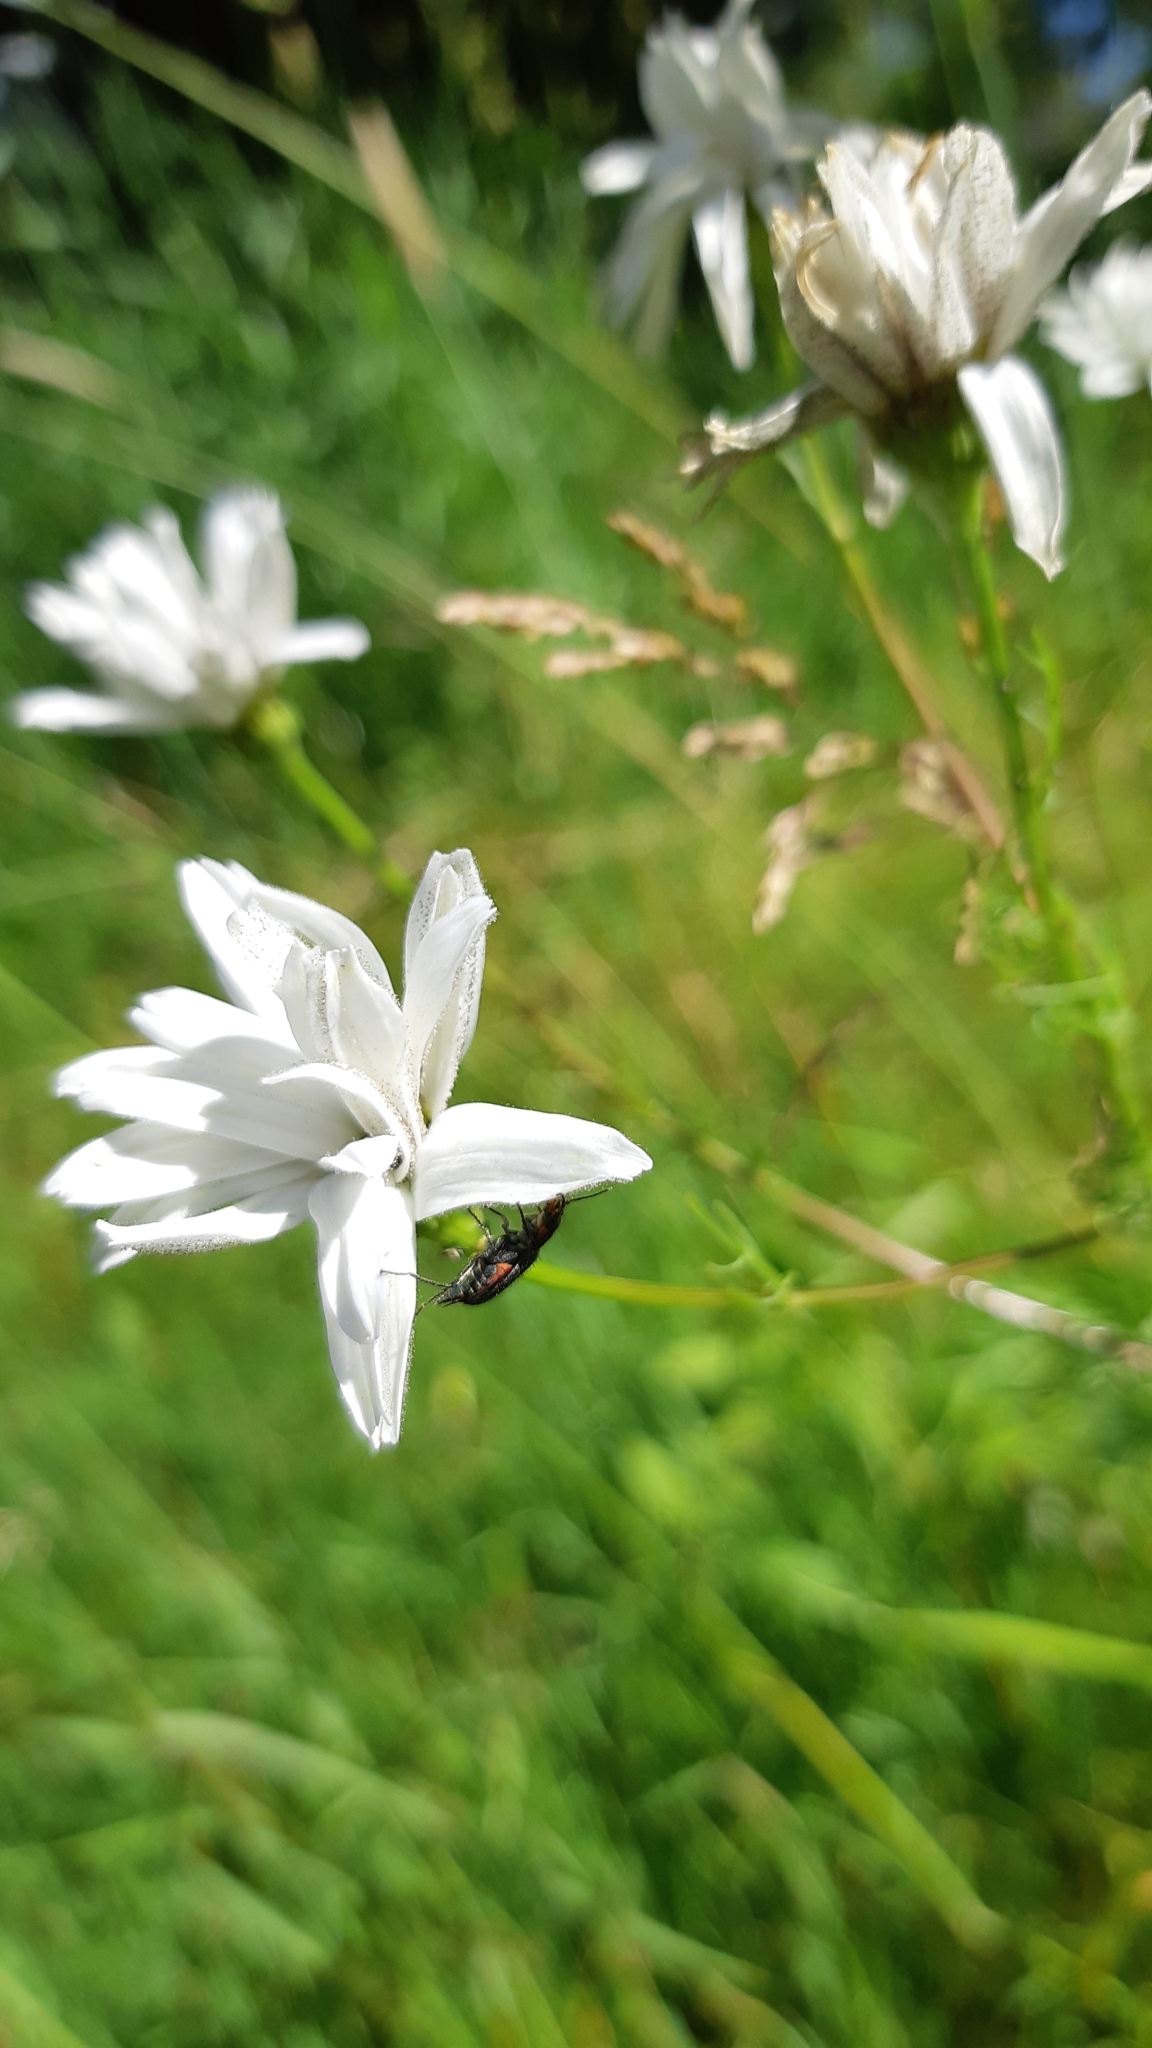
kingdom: Animalia
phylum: Arthropoda
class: Insecta
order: Coleoptera
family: Melyridae
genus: Malachius
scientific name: Malachius bipustulatus
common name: Malachite beetle
